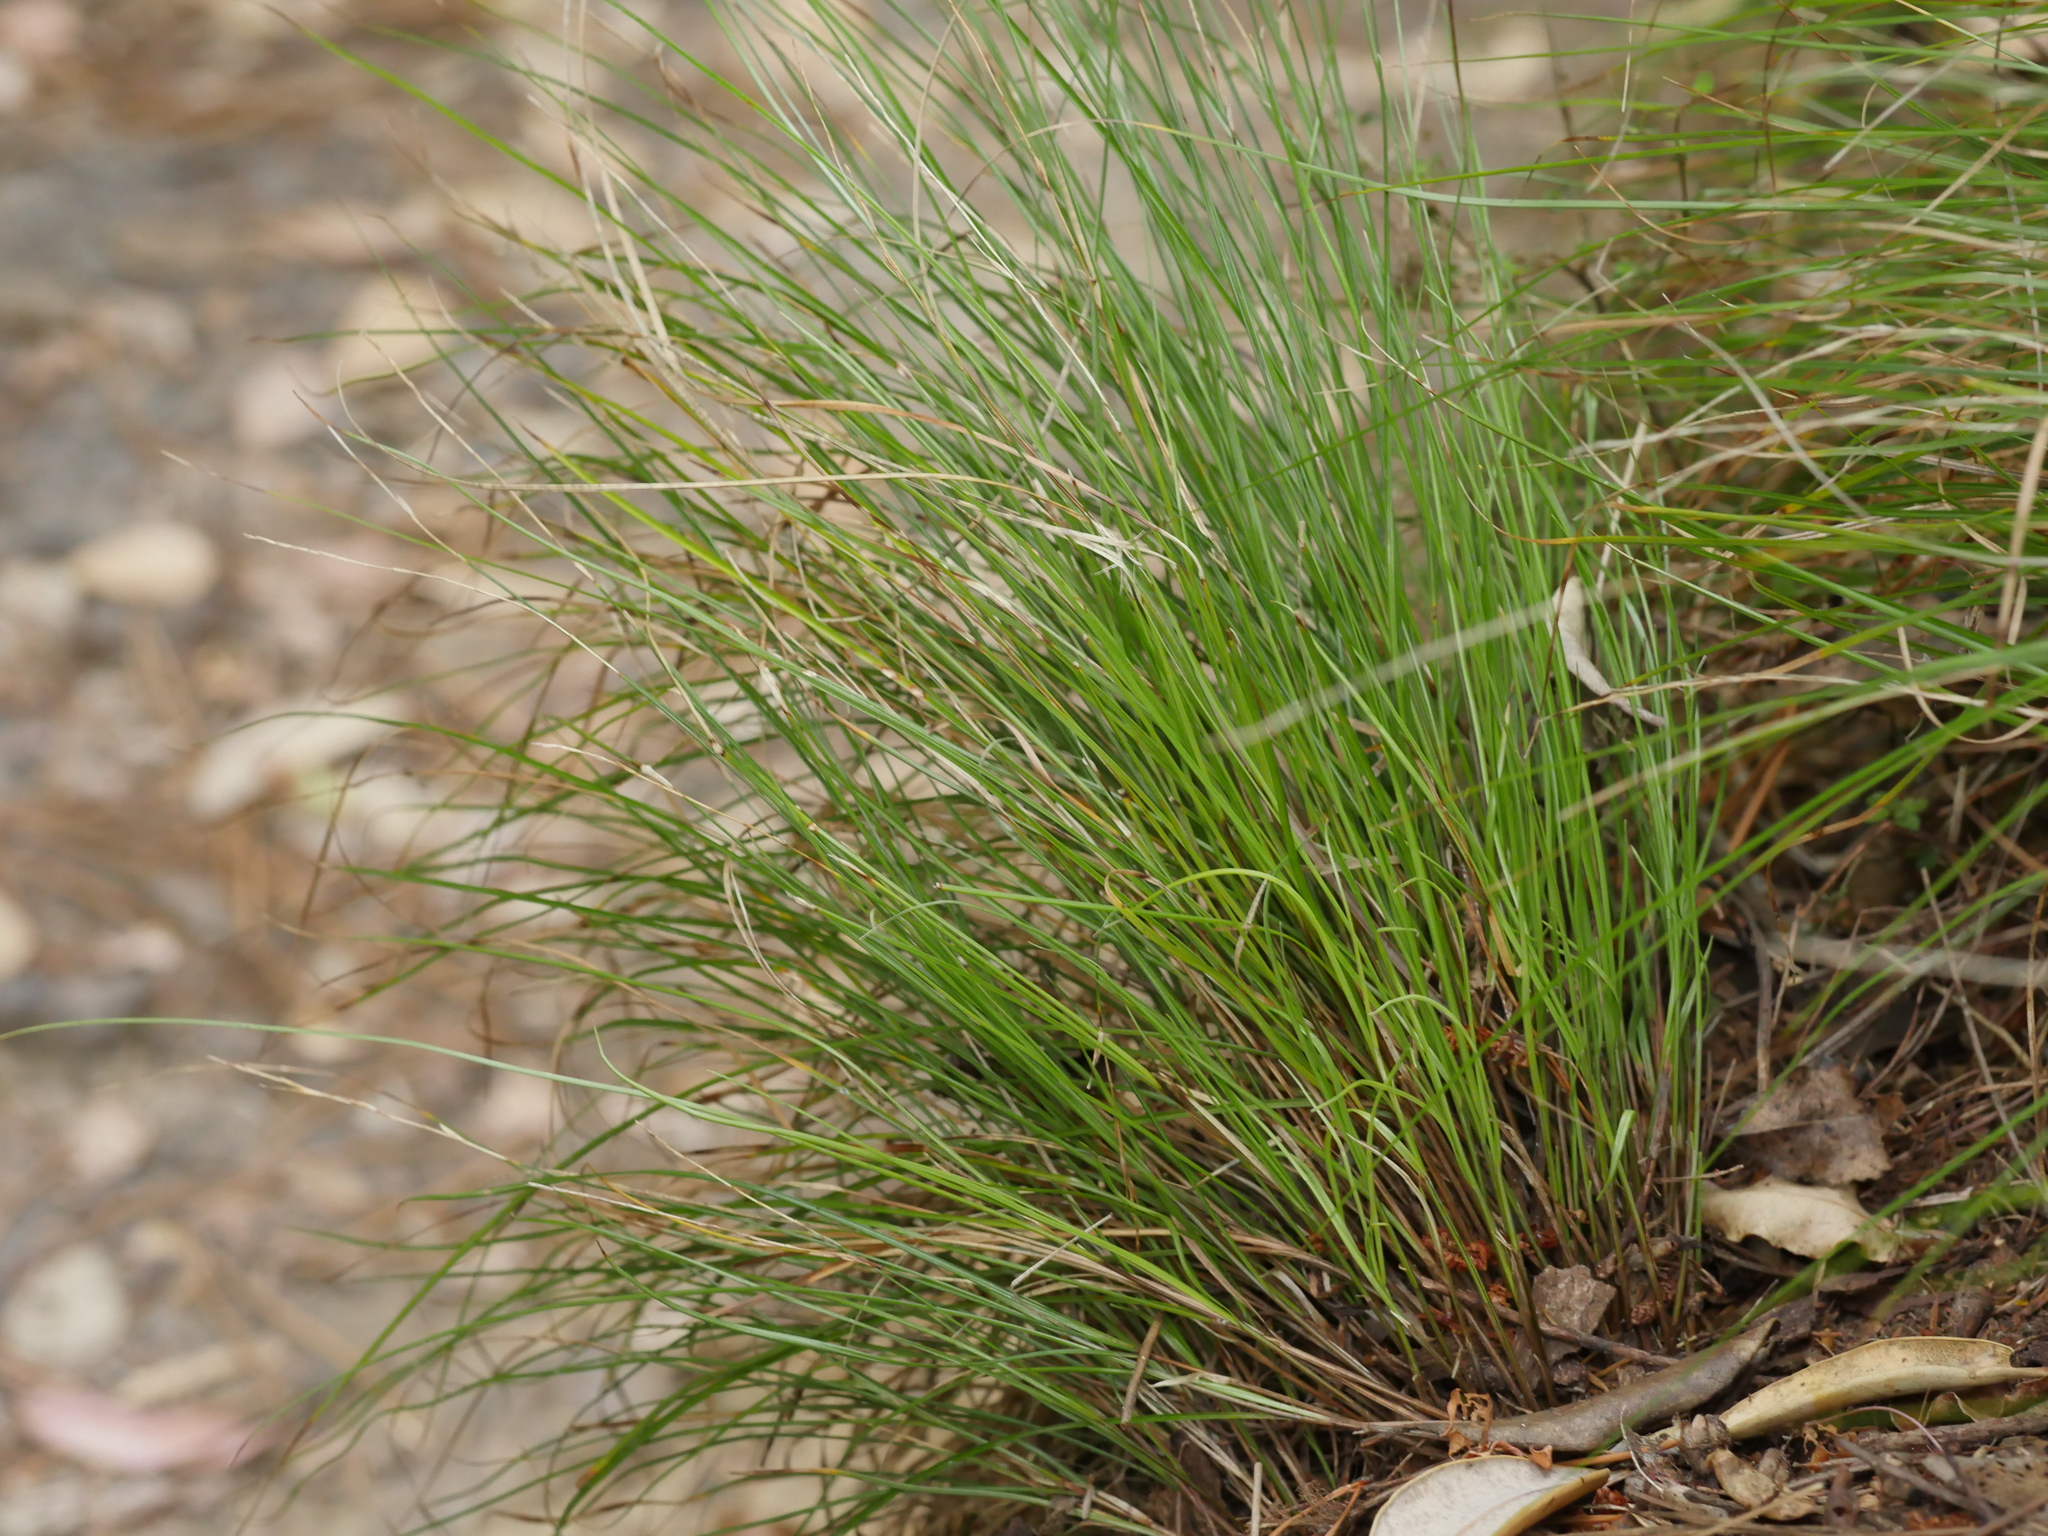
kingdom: Plantae
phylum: Tracheophyta
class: Liliopsida
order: Poales
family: Cyperaceae
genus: Carex
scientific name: Carex banksiana
